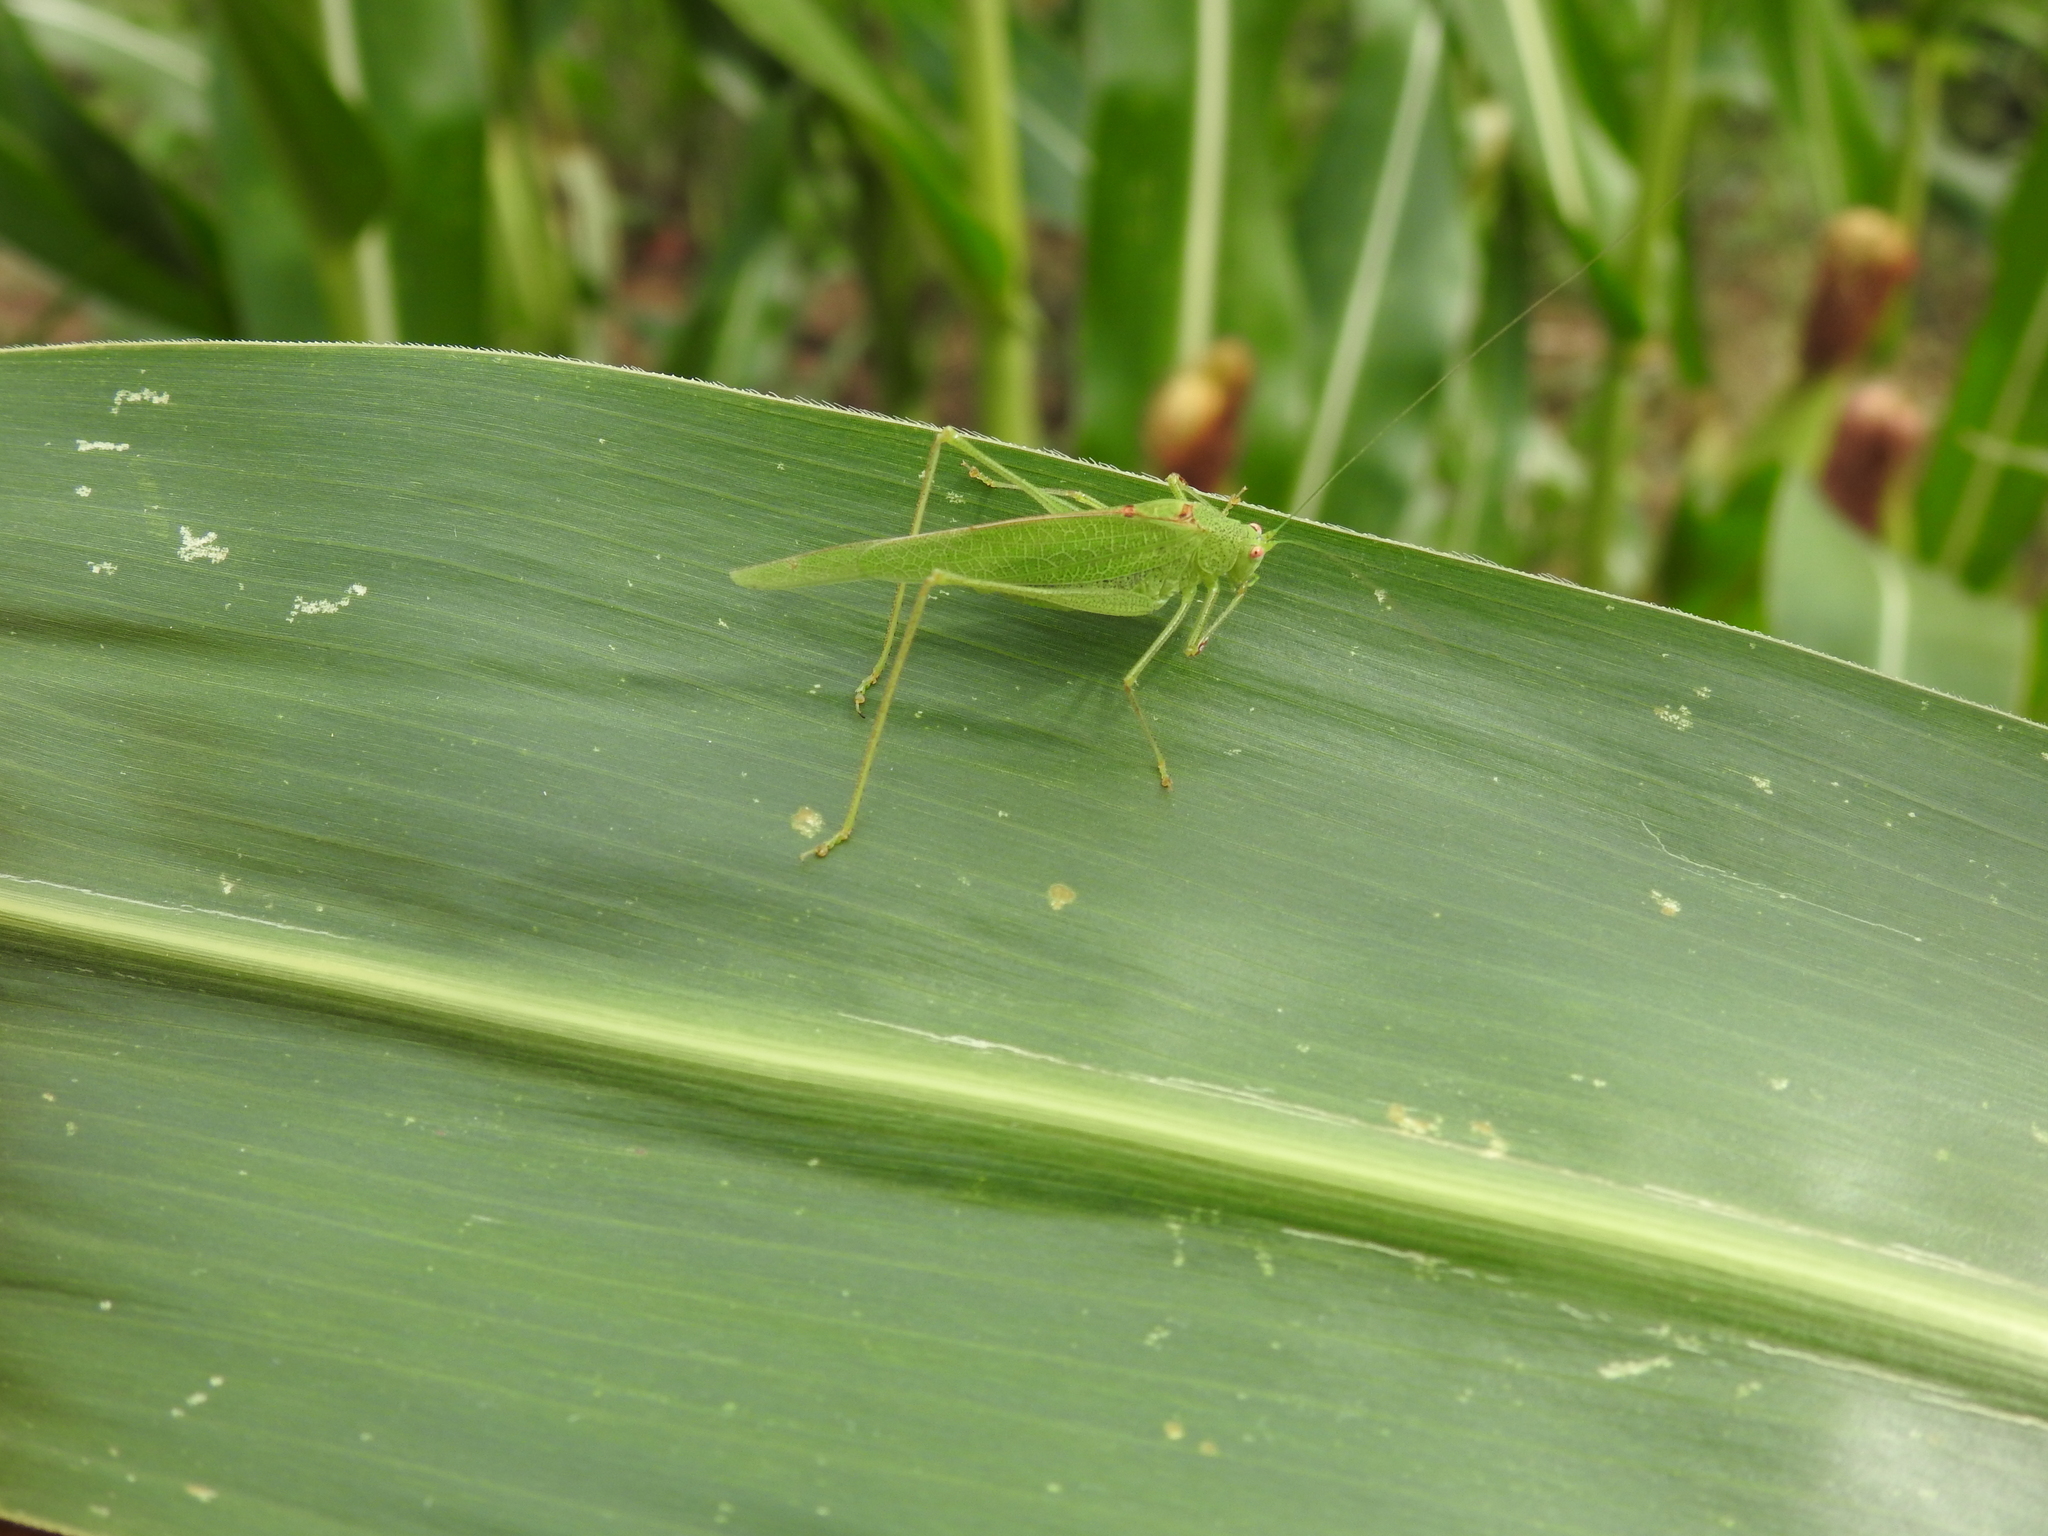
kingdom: Animalia
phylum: Arthropoda
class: Insecta
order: Orthoptera
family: Tettigoniidae
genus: Phaneroptera
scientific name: Phaneroptera nana
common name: Southern sickle bush-cricket
